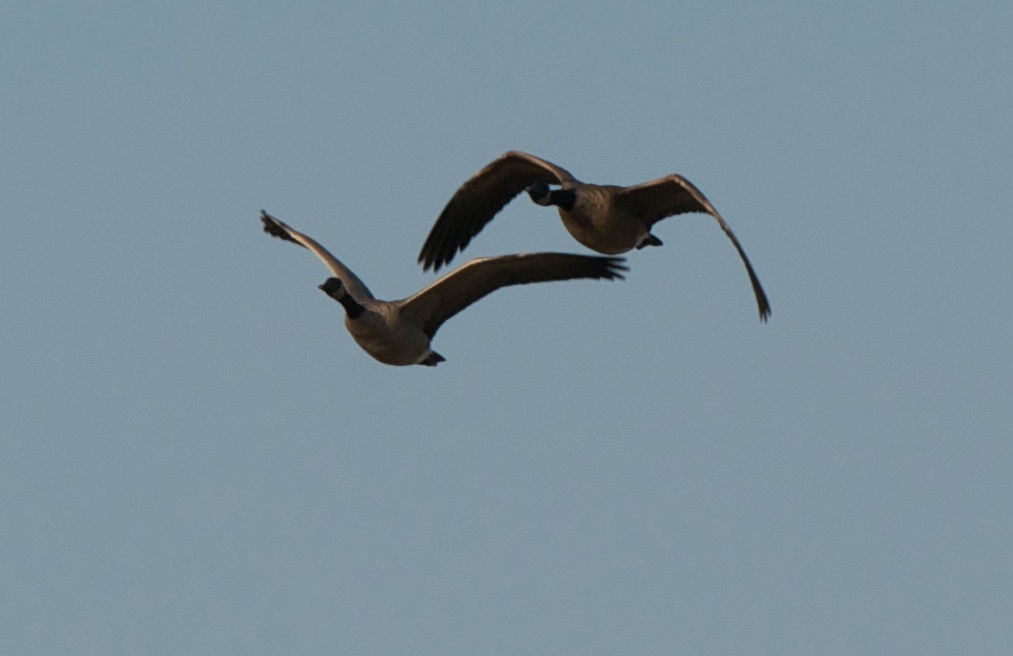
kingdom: Animalia
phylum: Chordata
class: Aves
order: Anseriformes
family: Anatidae
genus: Branta
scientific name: Branta canadensis
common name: Canada goose
